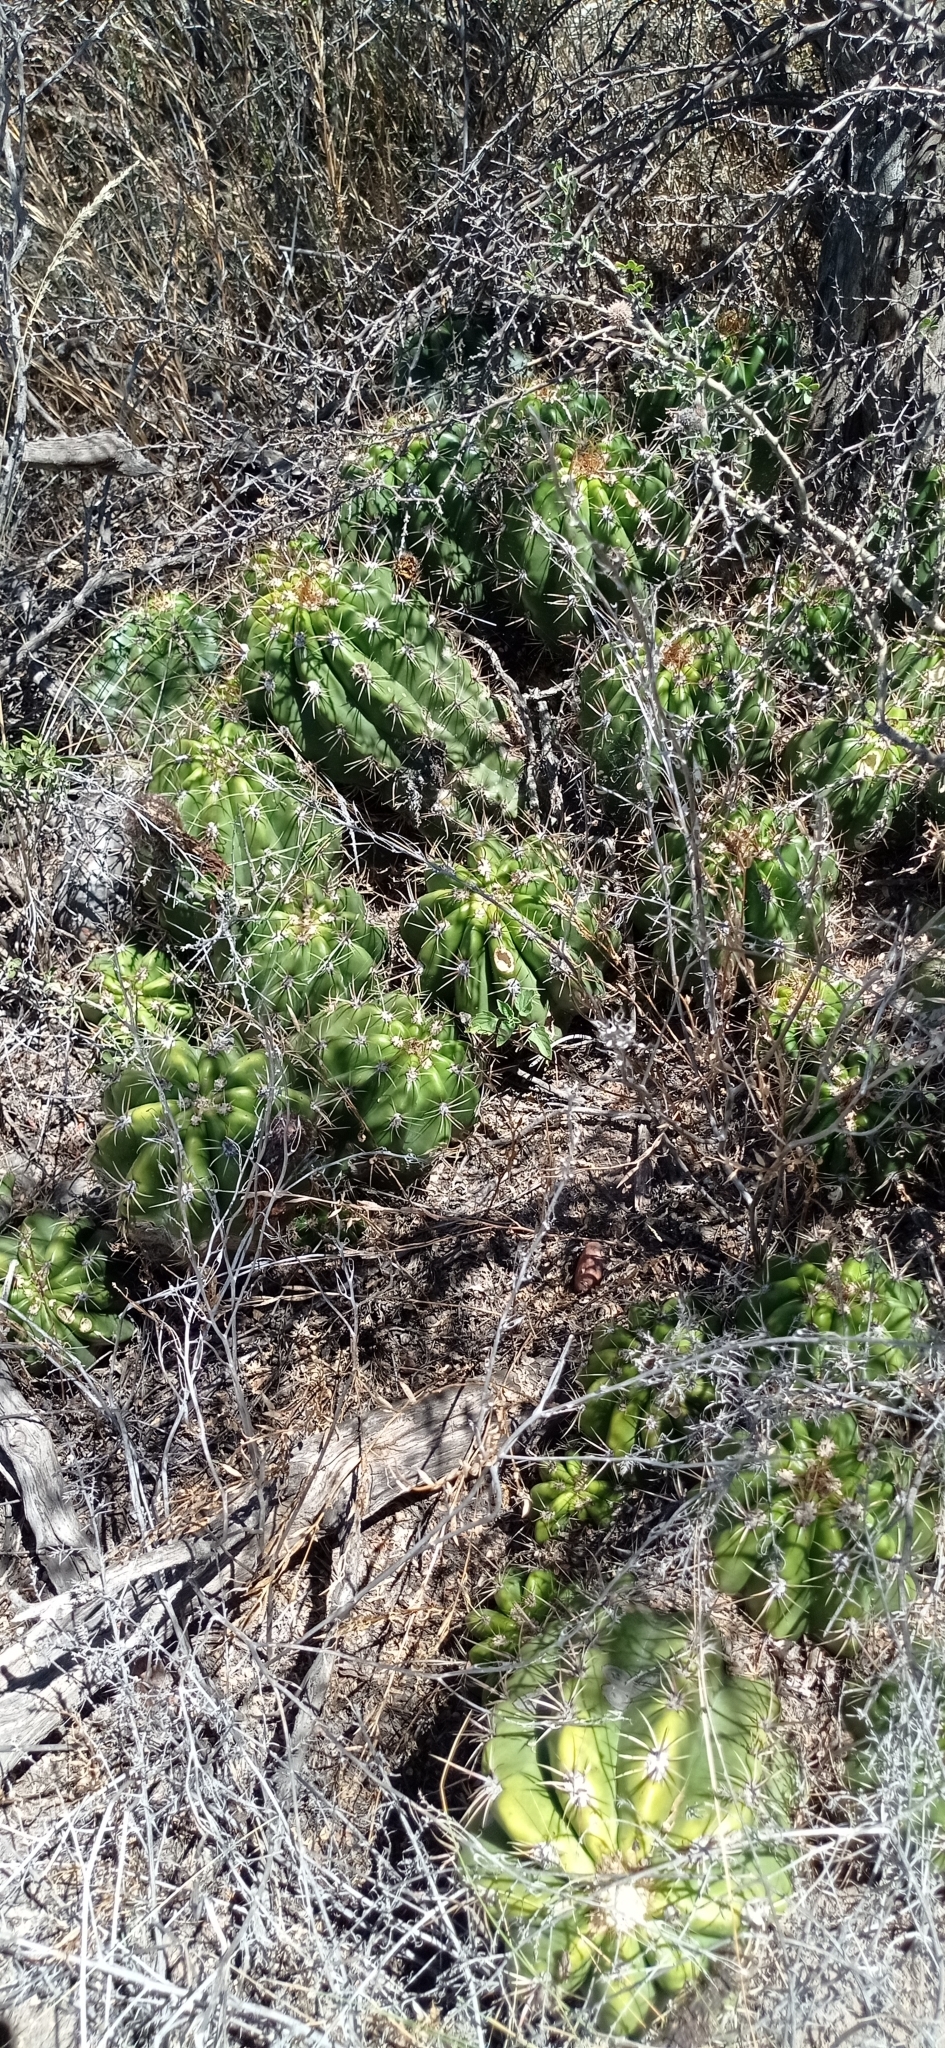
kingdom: Plantae
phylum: Tracheophyta
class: Magnoliopsida
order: Caryophyllales
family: Cactaceae
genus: Soehrensia
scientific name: Soehrensia candicans
